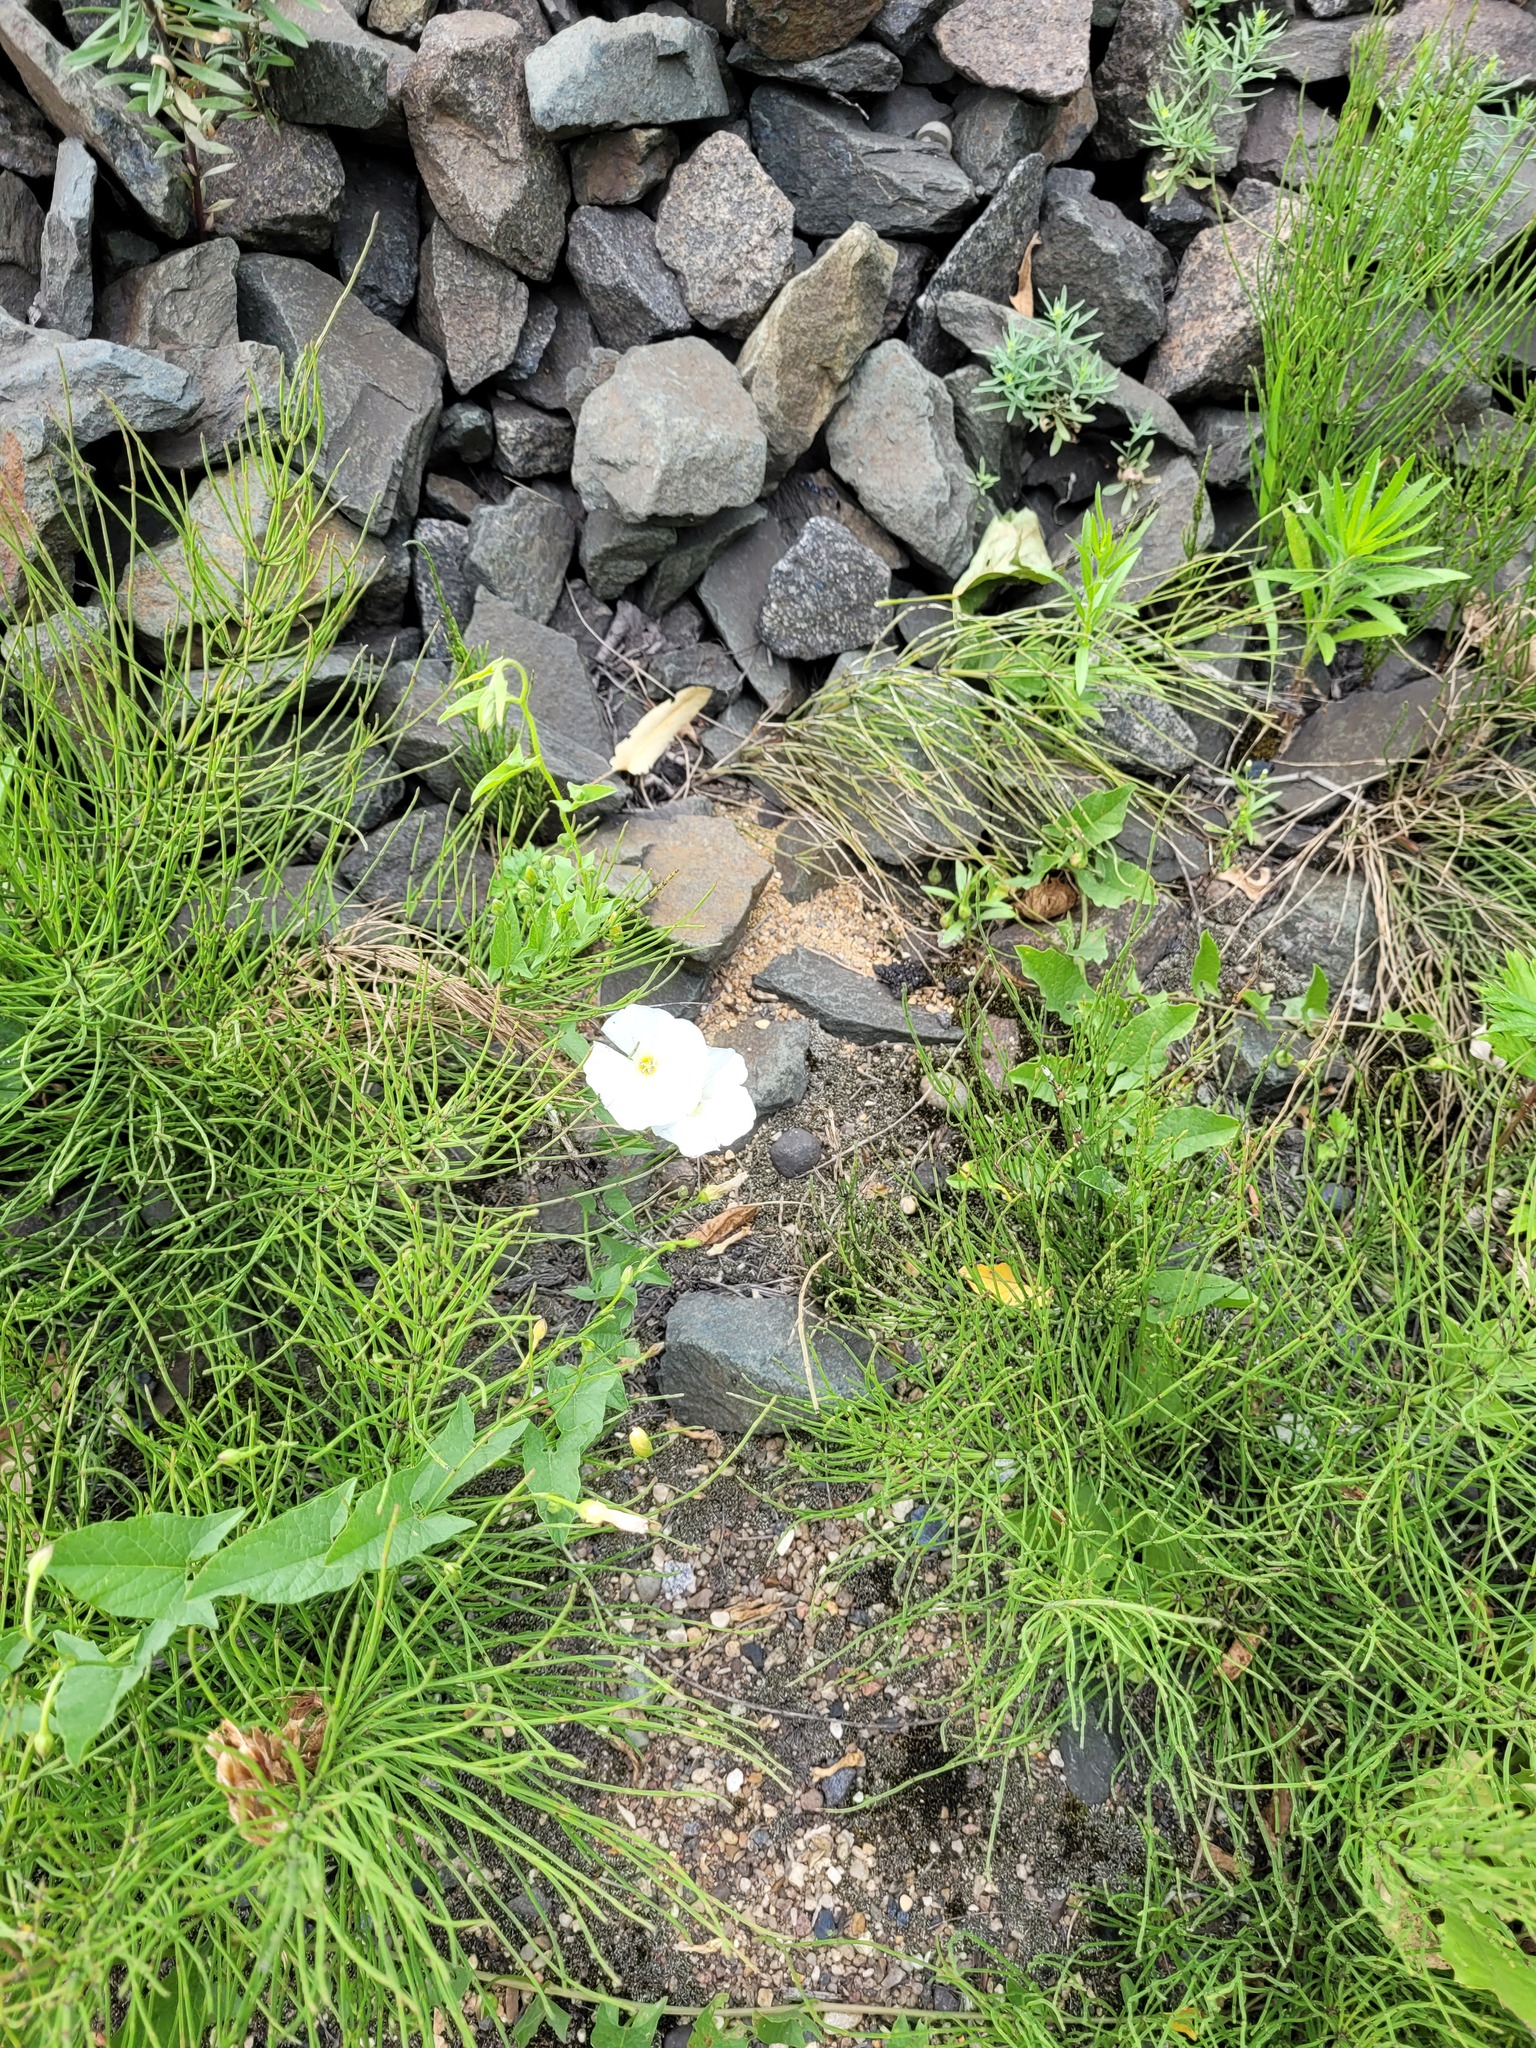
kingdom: Plantae
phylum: Tracheophyta
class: Magnoliopsida
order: Solanales
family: Convolvulaceae
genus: Convolvulus
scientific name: Convolvulus arvensis
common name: Field bindweed
